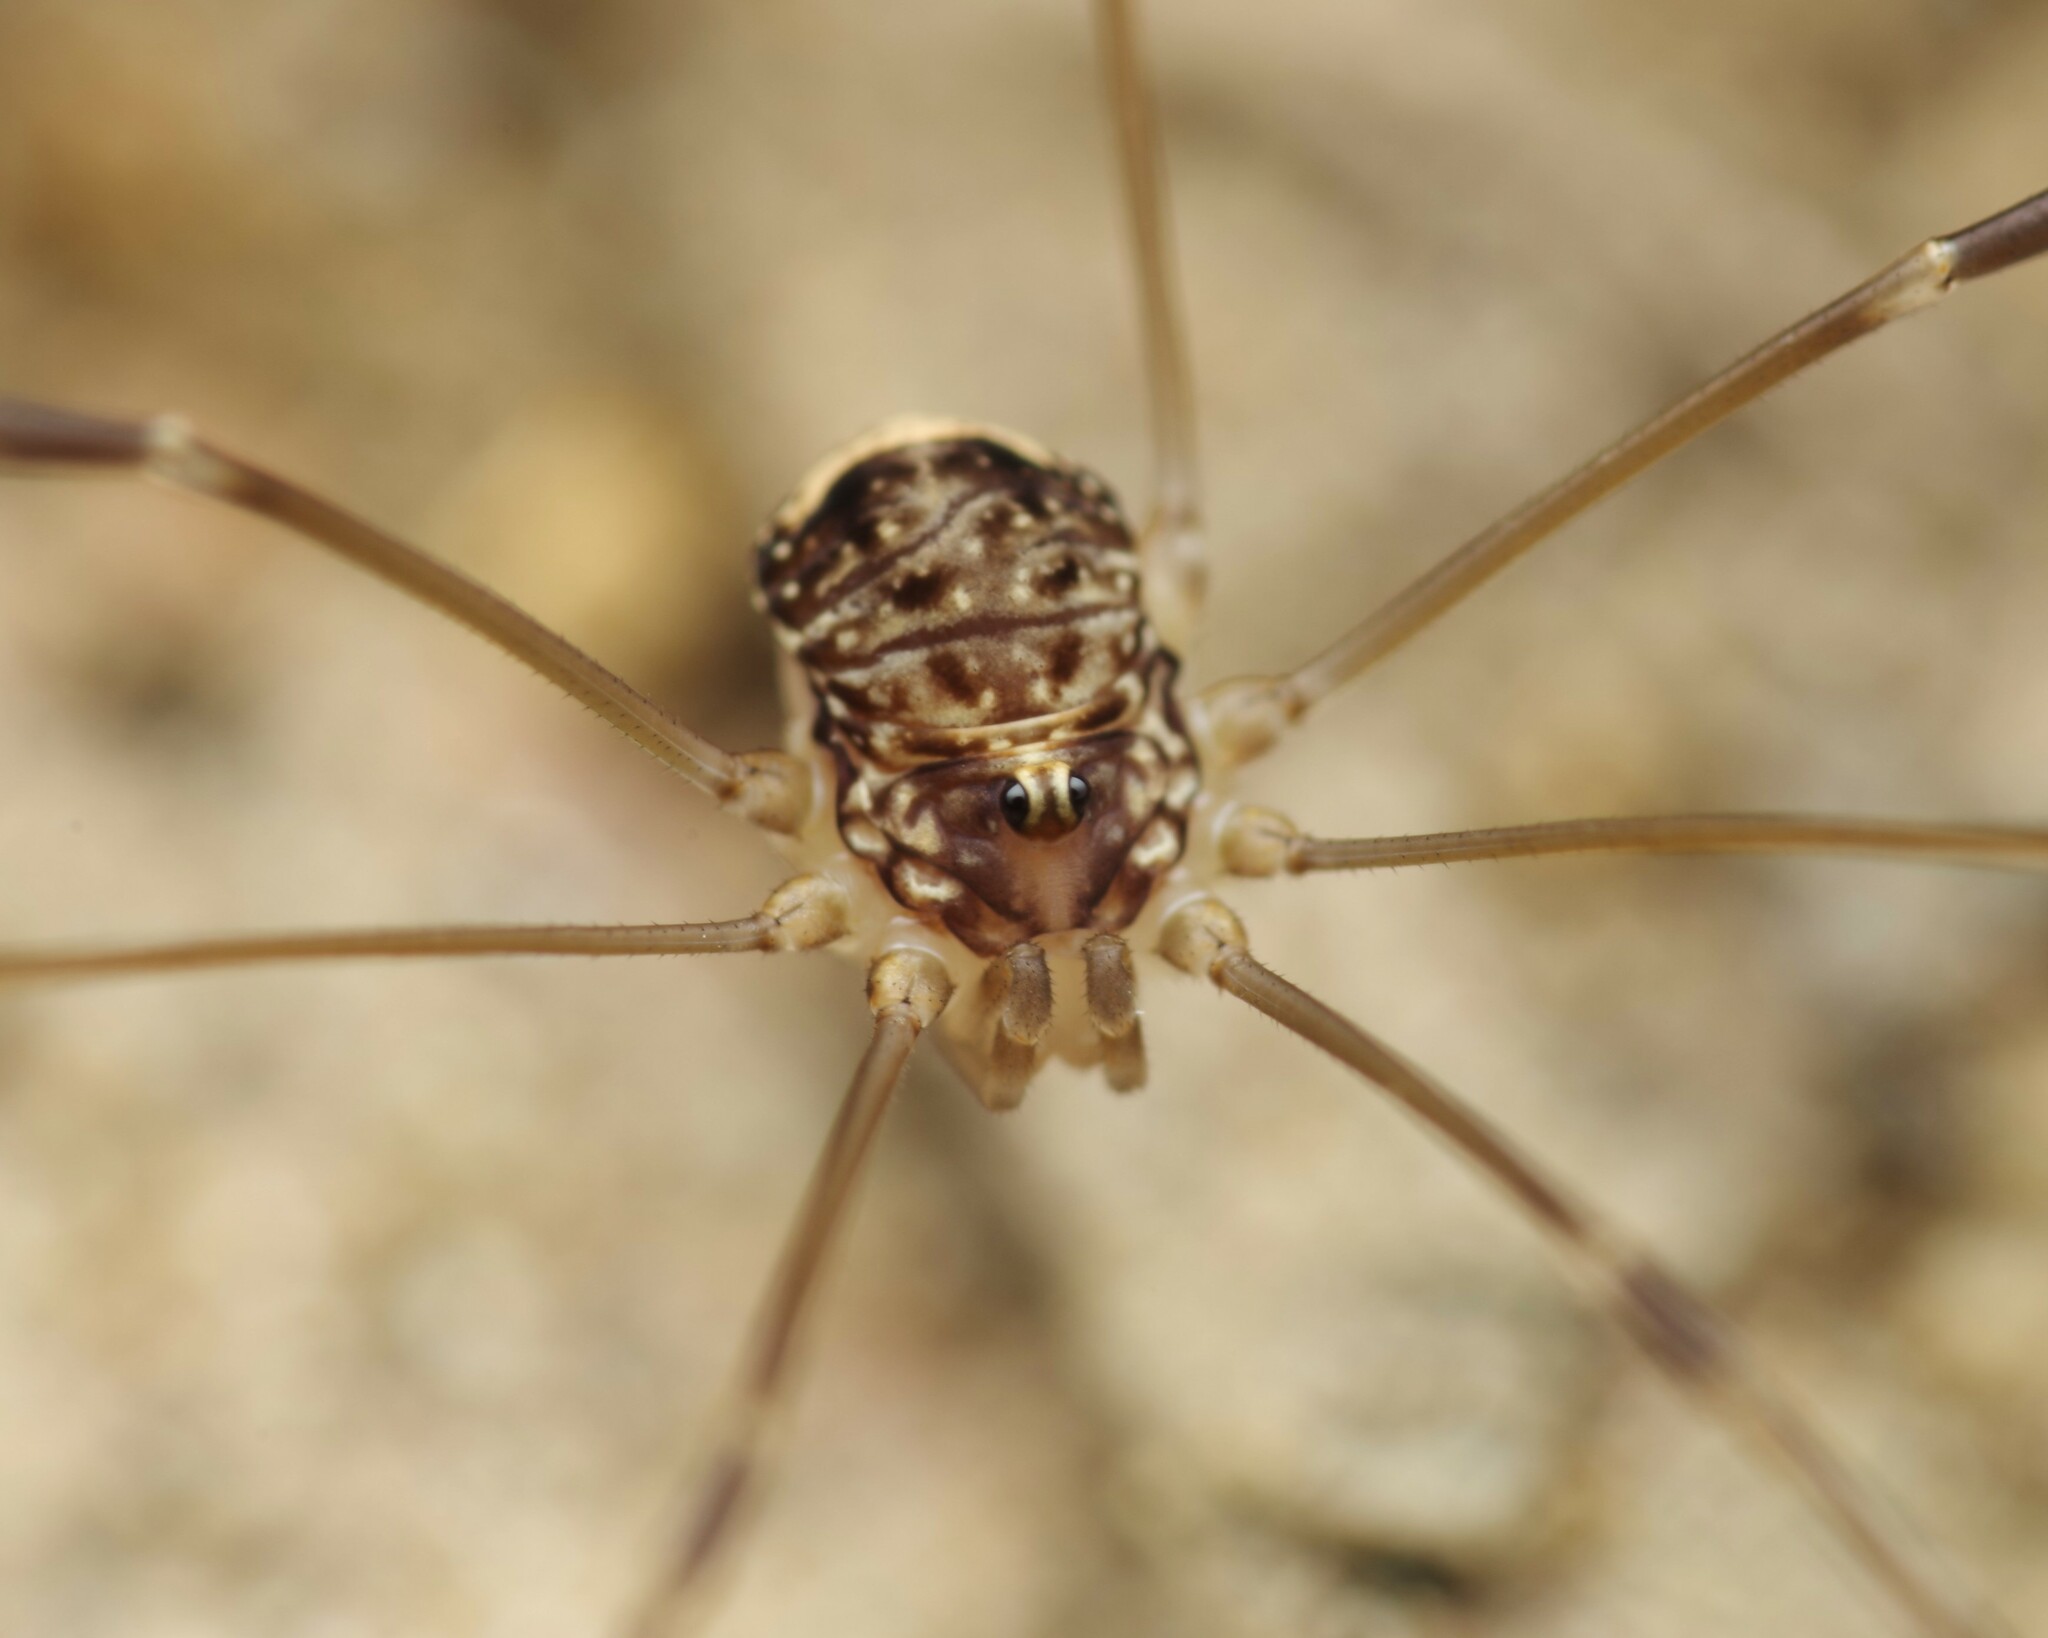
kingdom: Animalia
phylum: Arthropoda
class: Arachnida
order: Opiliones
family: Sclerosomatidae
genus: Leiobunum
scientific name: Leiobunum blackwalli
